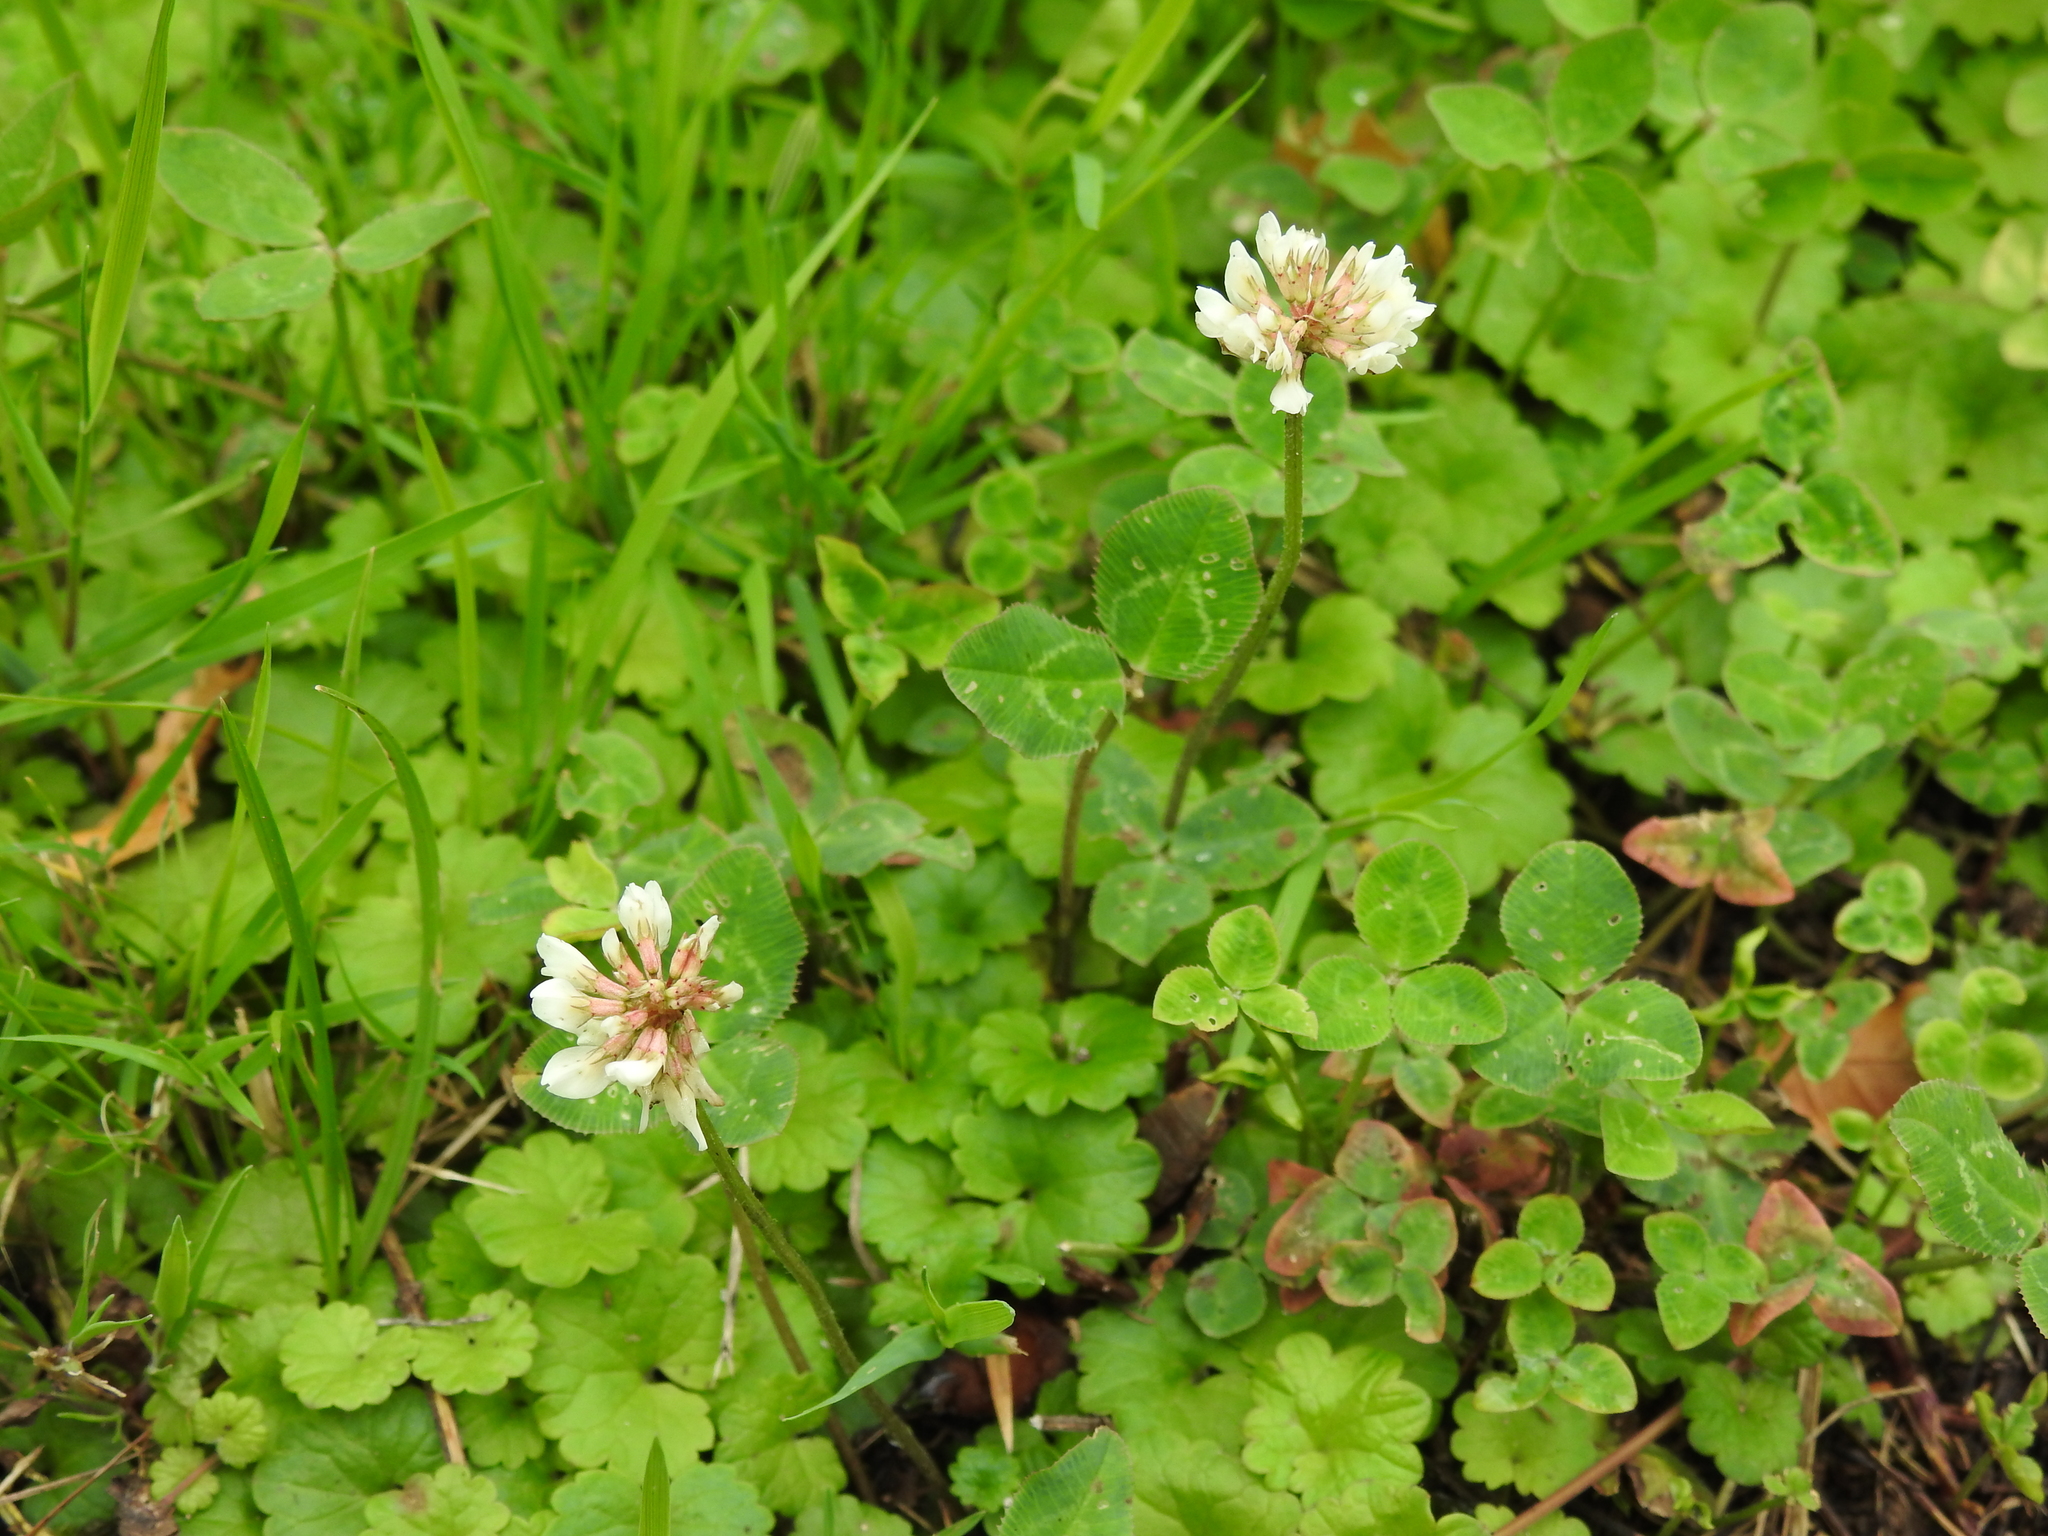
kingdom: Plantae
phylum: Tracheophyta
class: Magnoliopsida
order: Fabales
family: Fabaceae
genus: Trifolium
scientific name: Trifolium repens
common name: White clover
